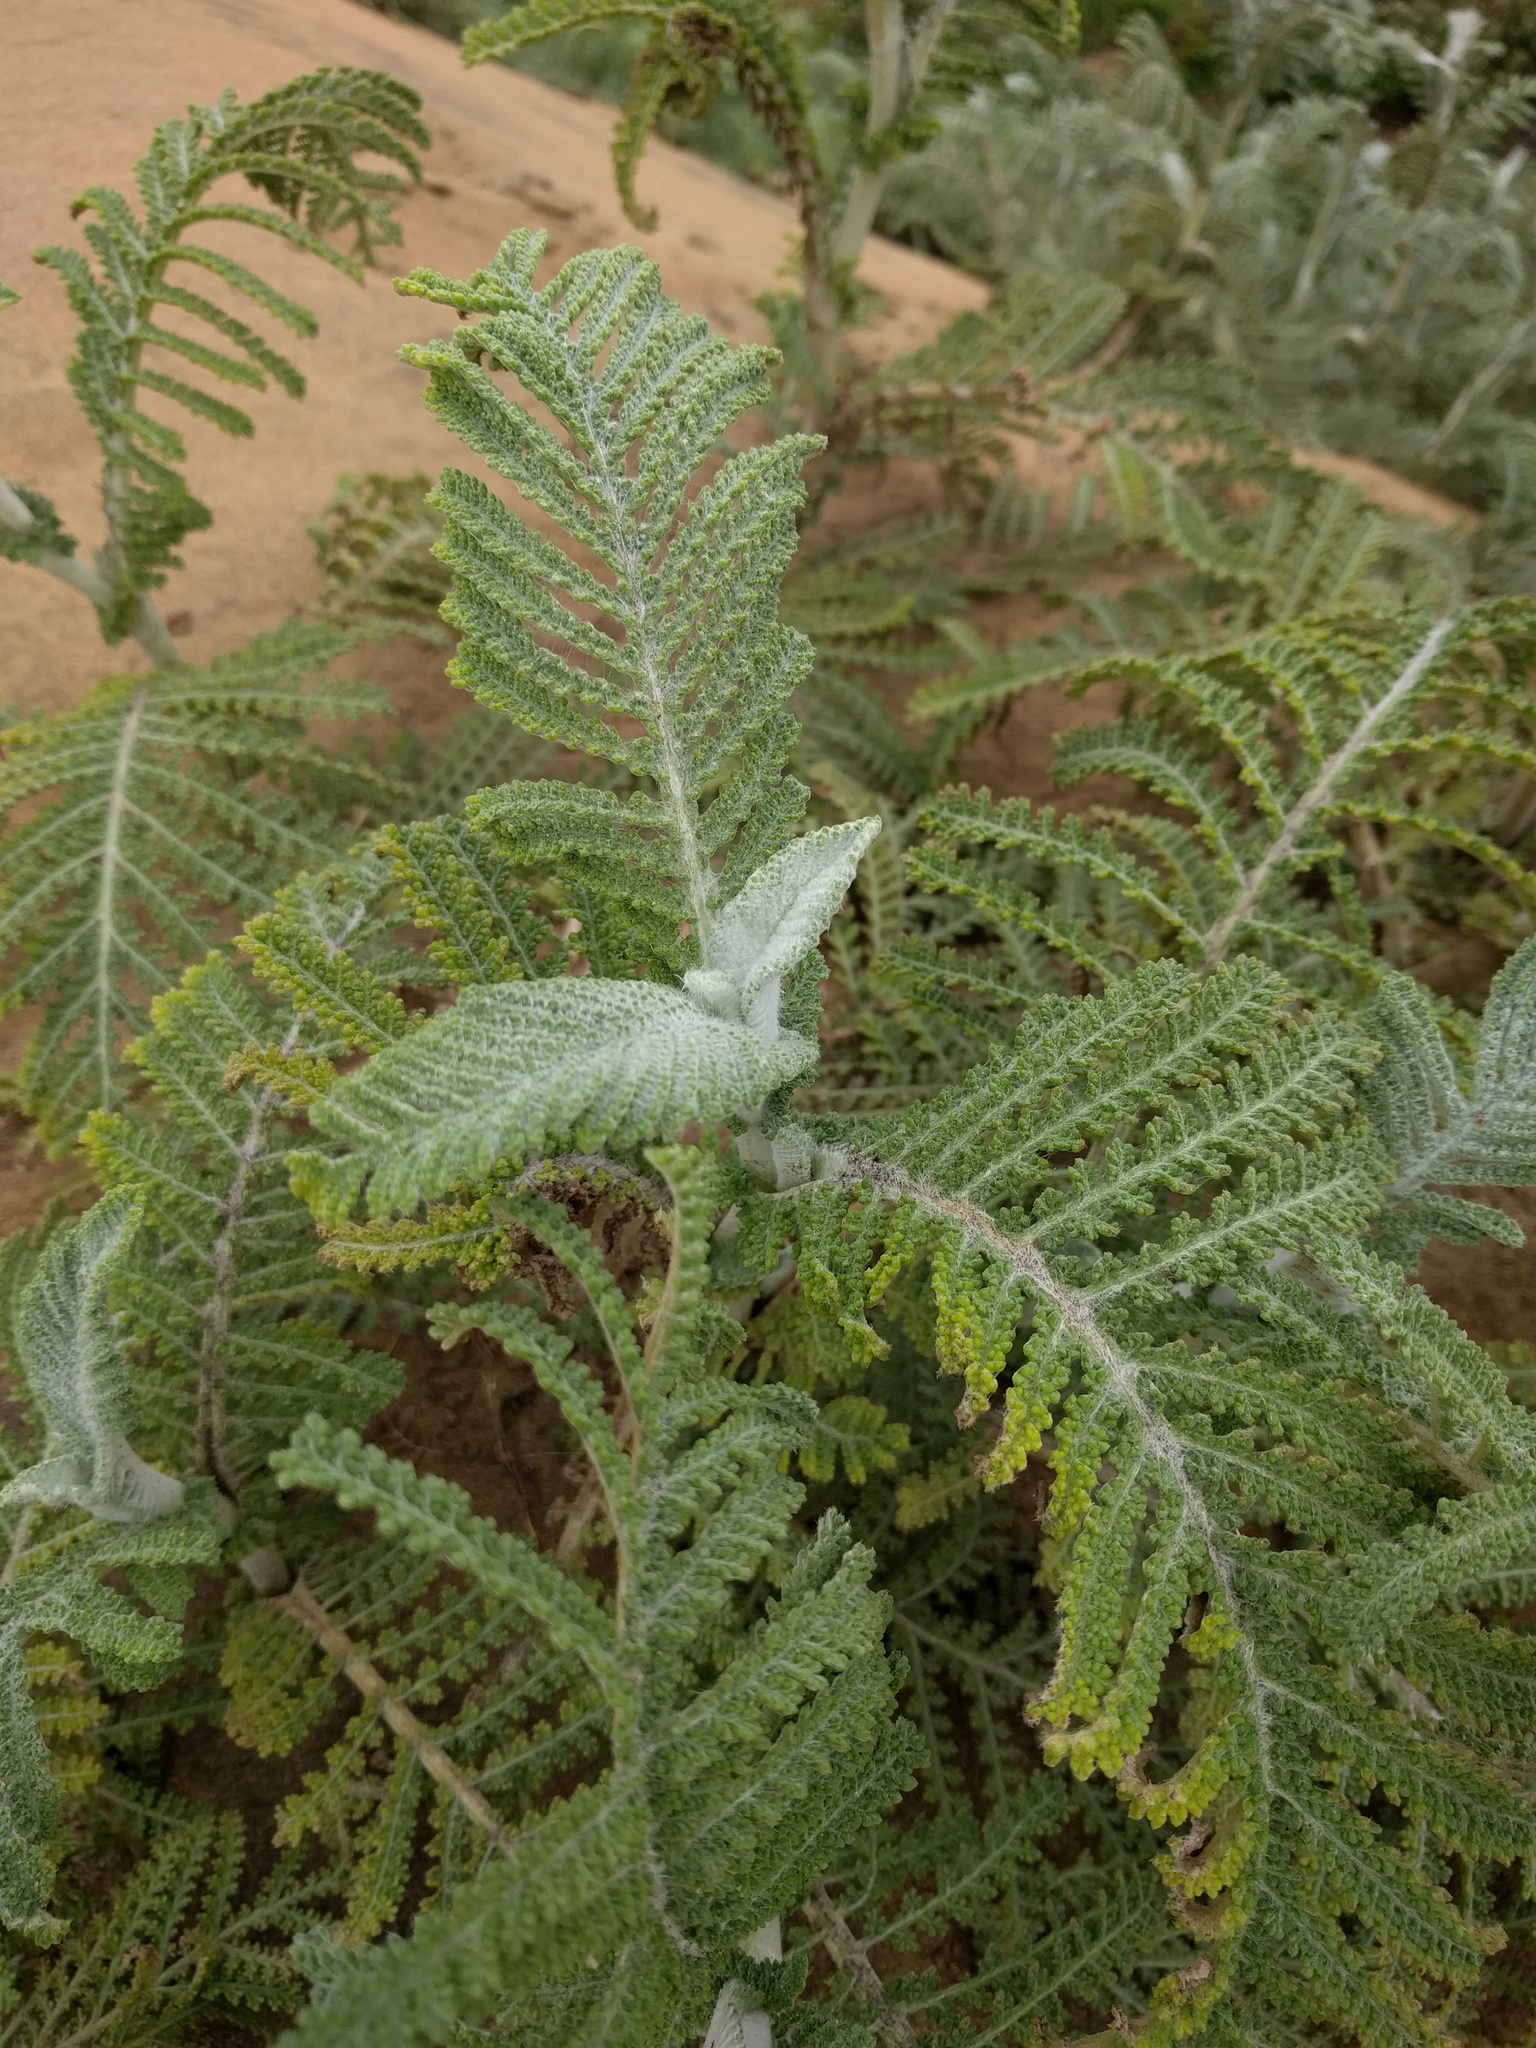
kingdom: Plantae
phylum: Tracheophyta
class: Magnoliopsida
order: Asterales
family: Asteraceae
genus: Tanacetum
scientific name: Tanacetum bipinnatum
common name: Dwarf tansy
